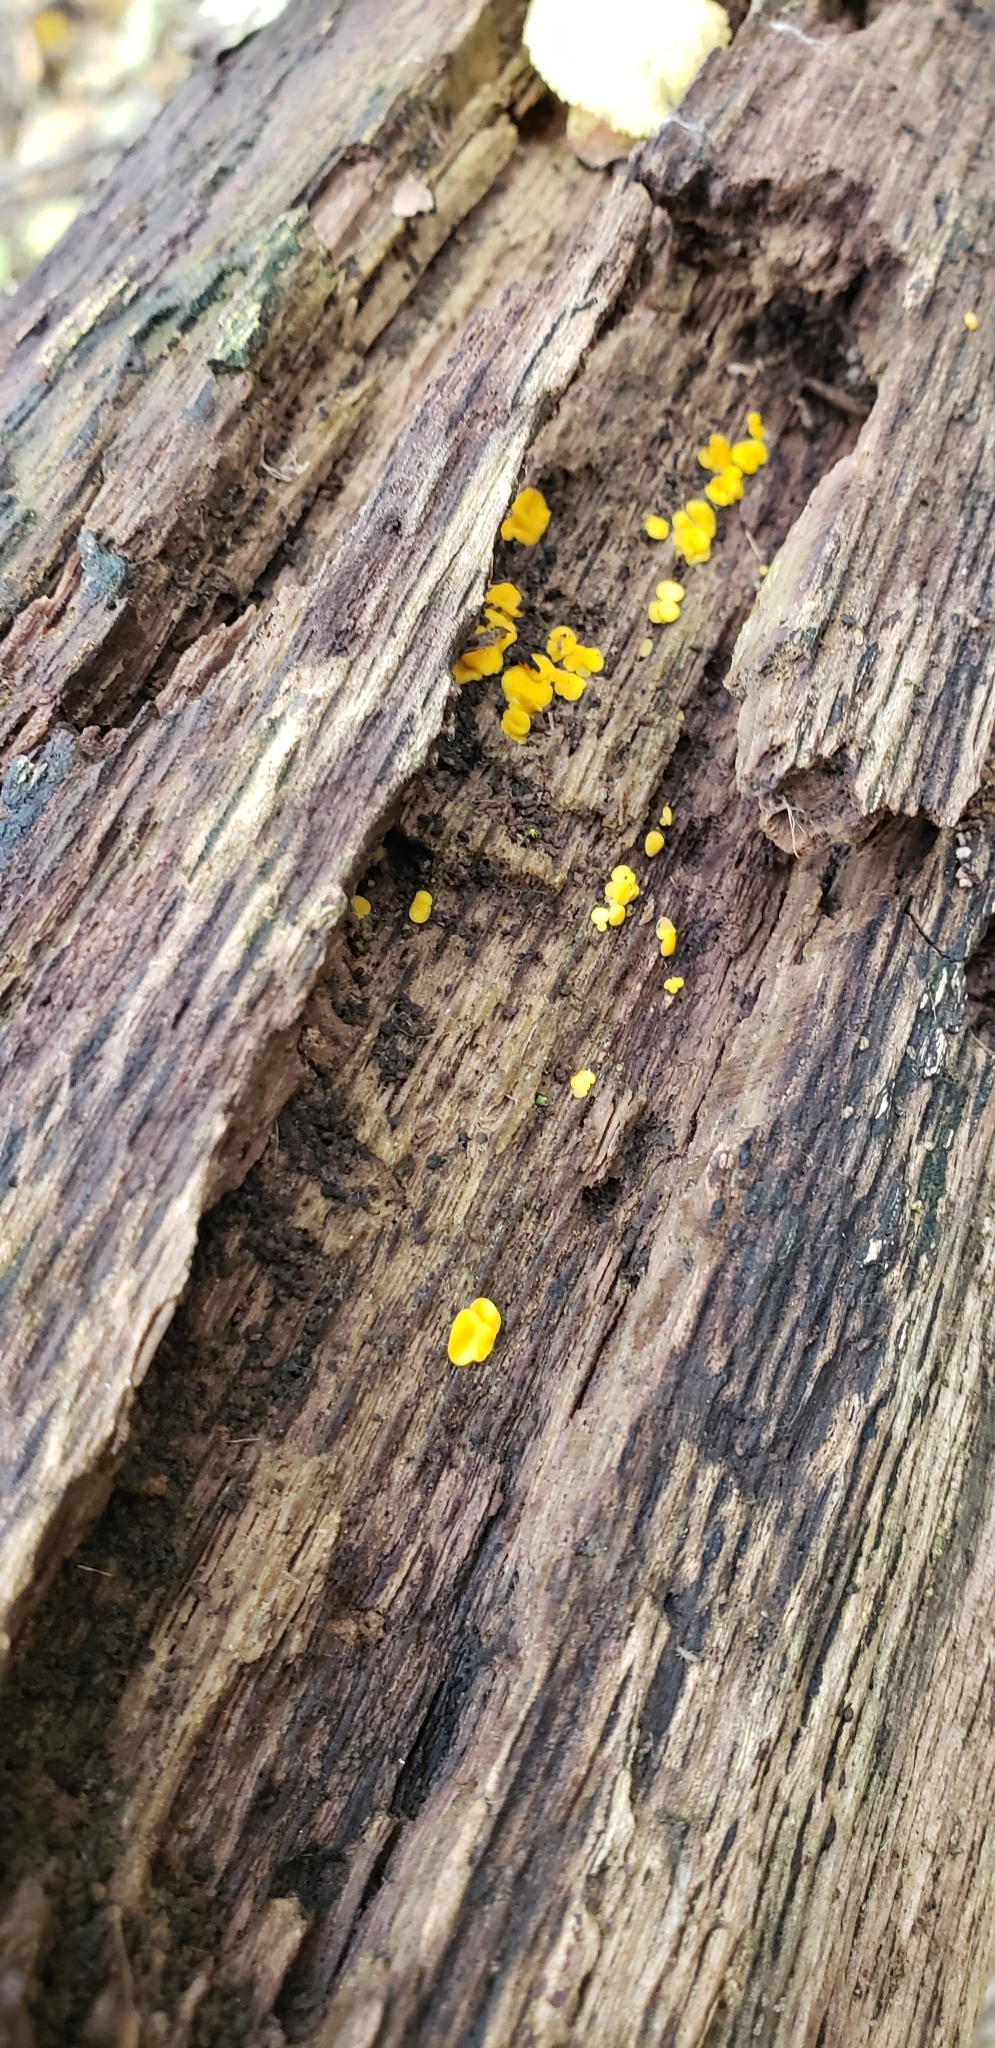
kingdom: Fungi
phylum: Ascomycota
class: Leotiomycetes
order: Helotiales
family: Pezizellaceae
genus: Calycina
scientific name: Calycina citrina
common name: Yellow fairy cups
